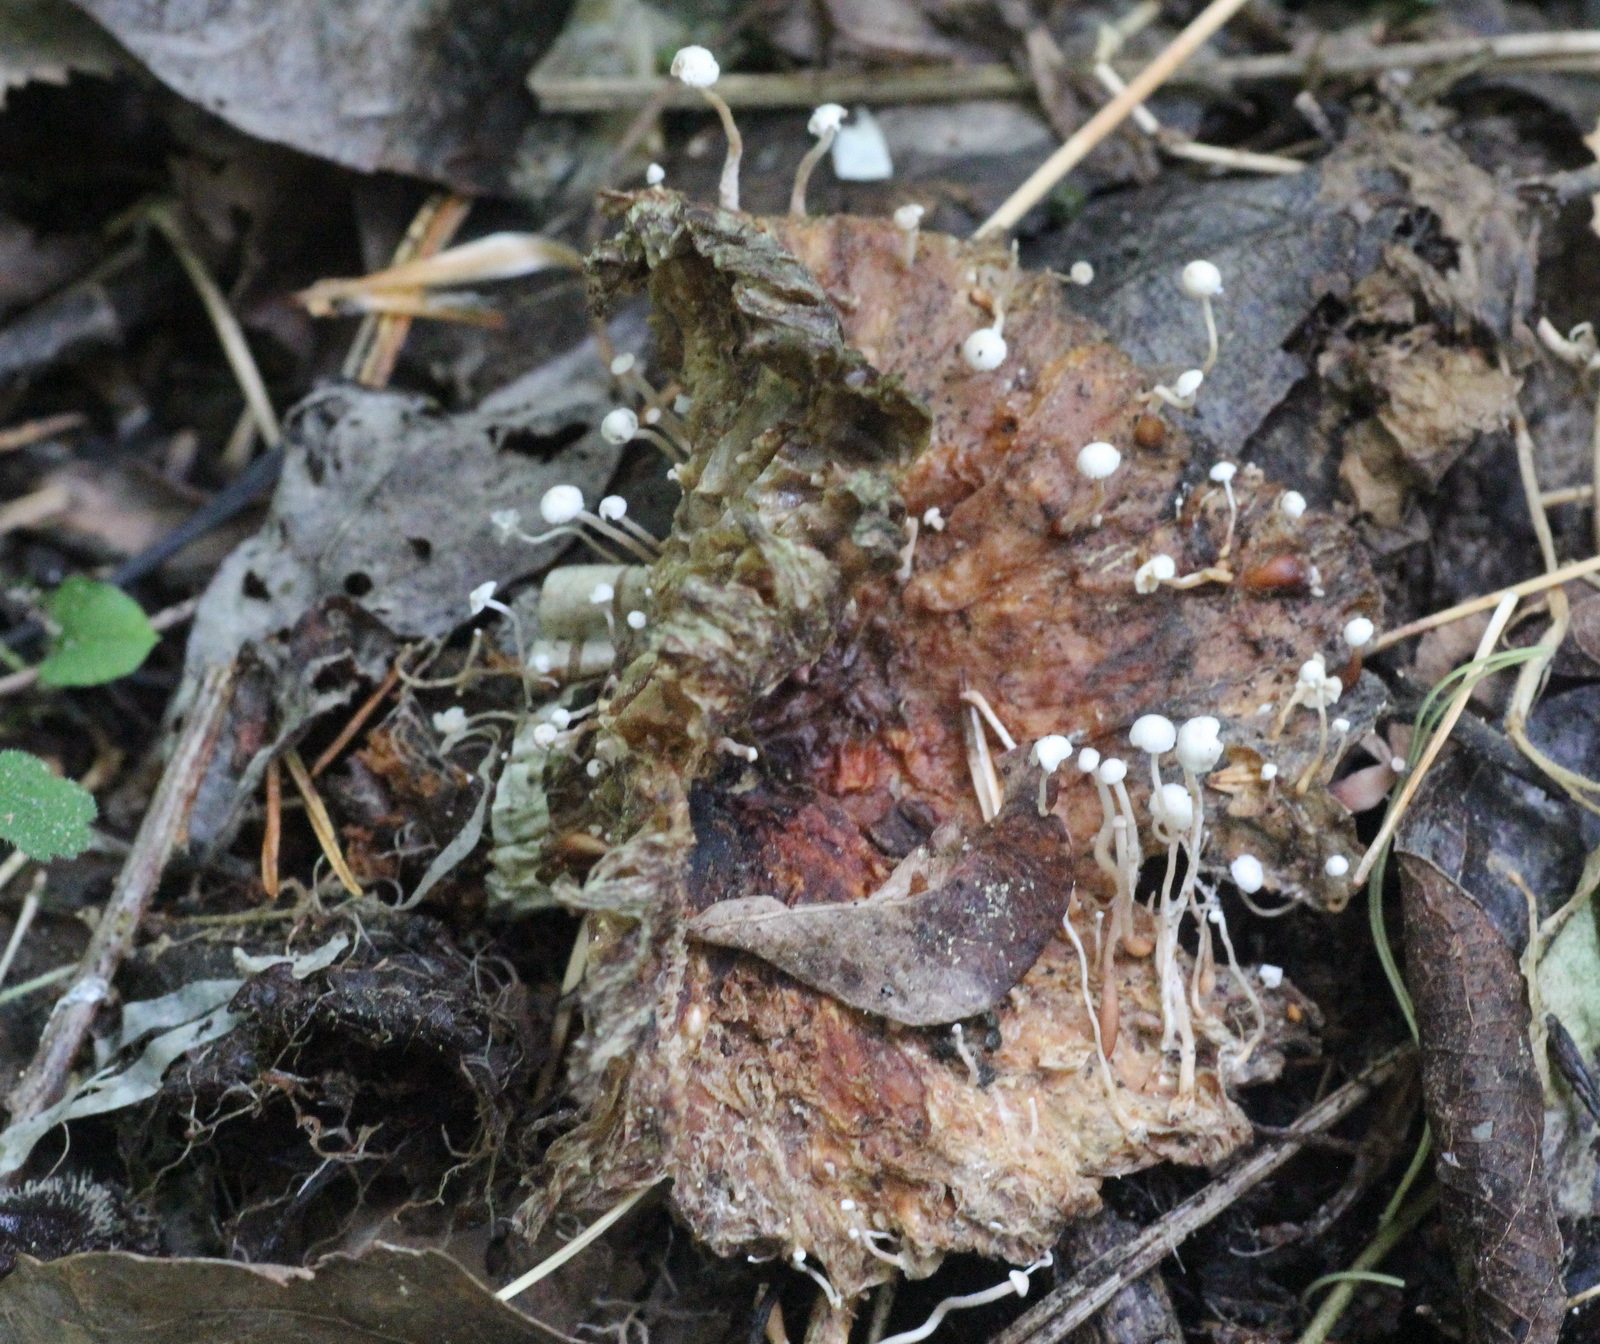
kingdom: Fungi
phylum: Basidiomycota
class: Agaricomycetes
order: Agaricales
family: Tricholomataceae
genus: Collybia
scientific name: Collybia cirrhata
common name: Piggyback shanklet
